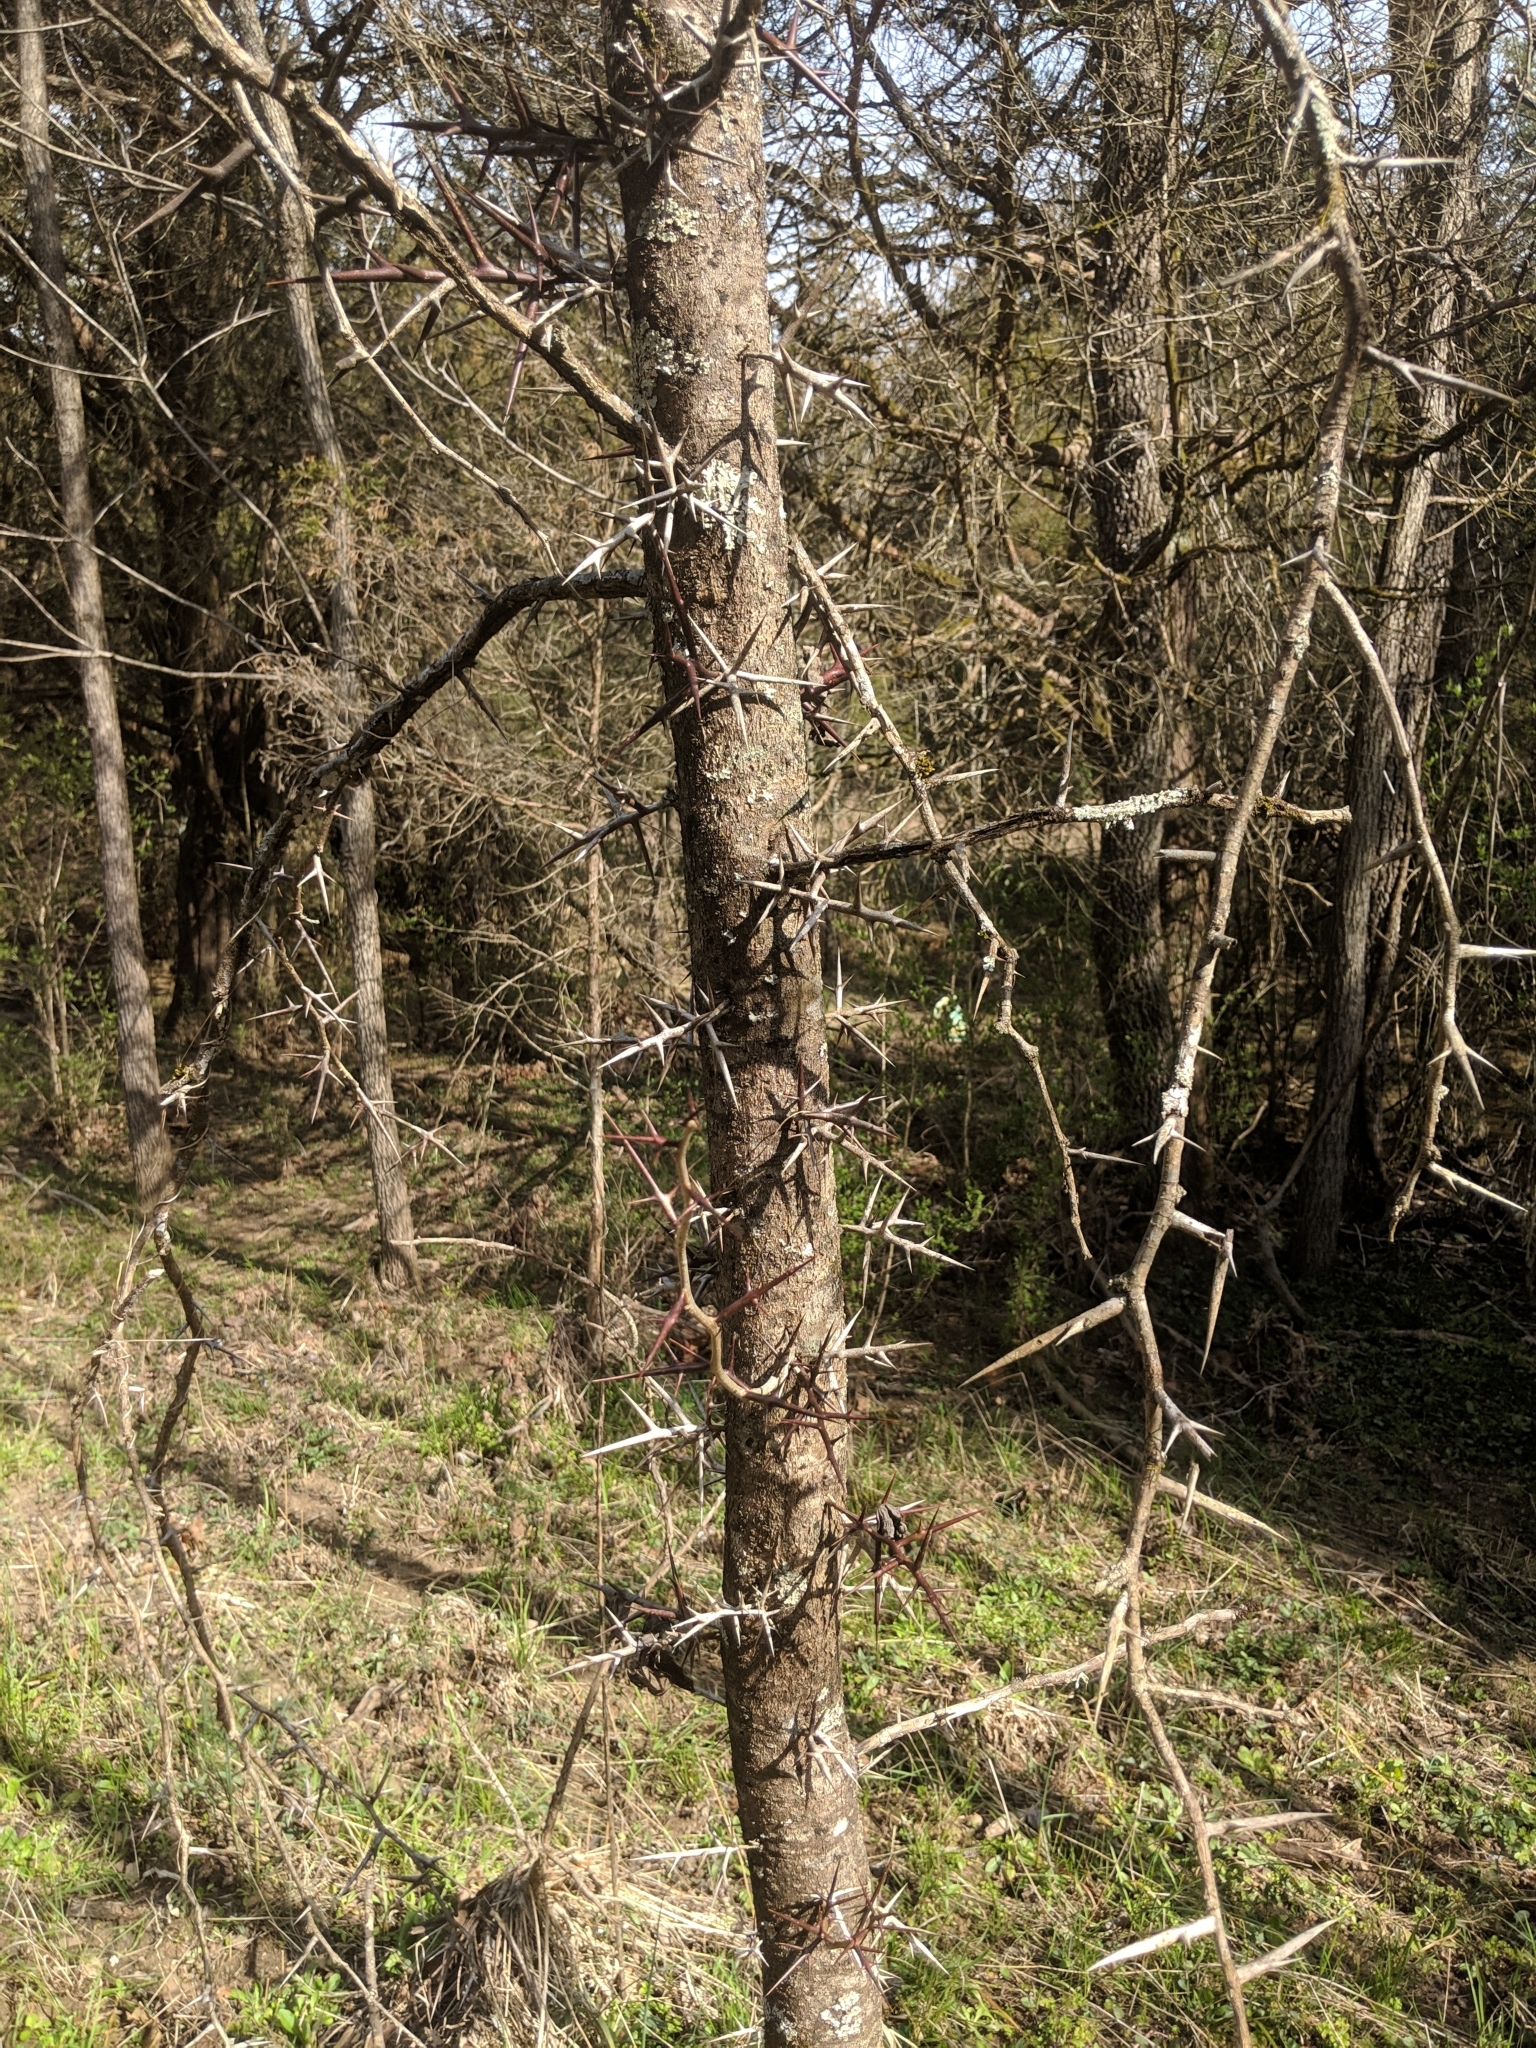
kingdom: Plantae
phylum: Tracheophyta
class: Magnoliopsida
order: Fabales
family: Fabaceae
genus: Gleditsia
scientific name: Gleditsia triacanthos
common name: Common honeylocust
